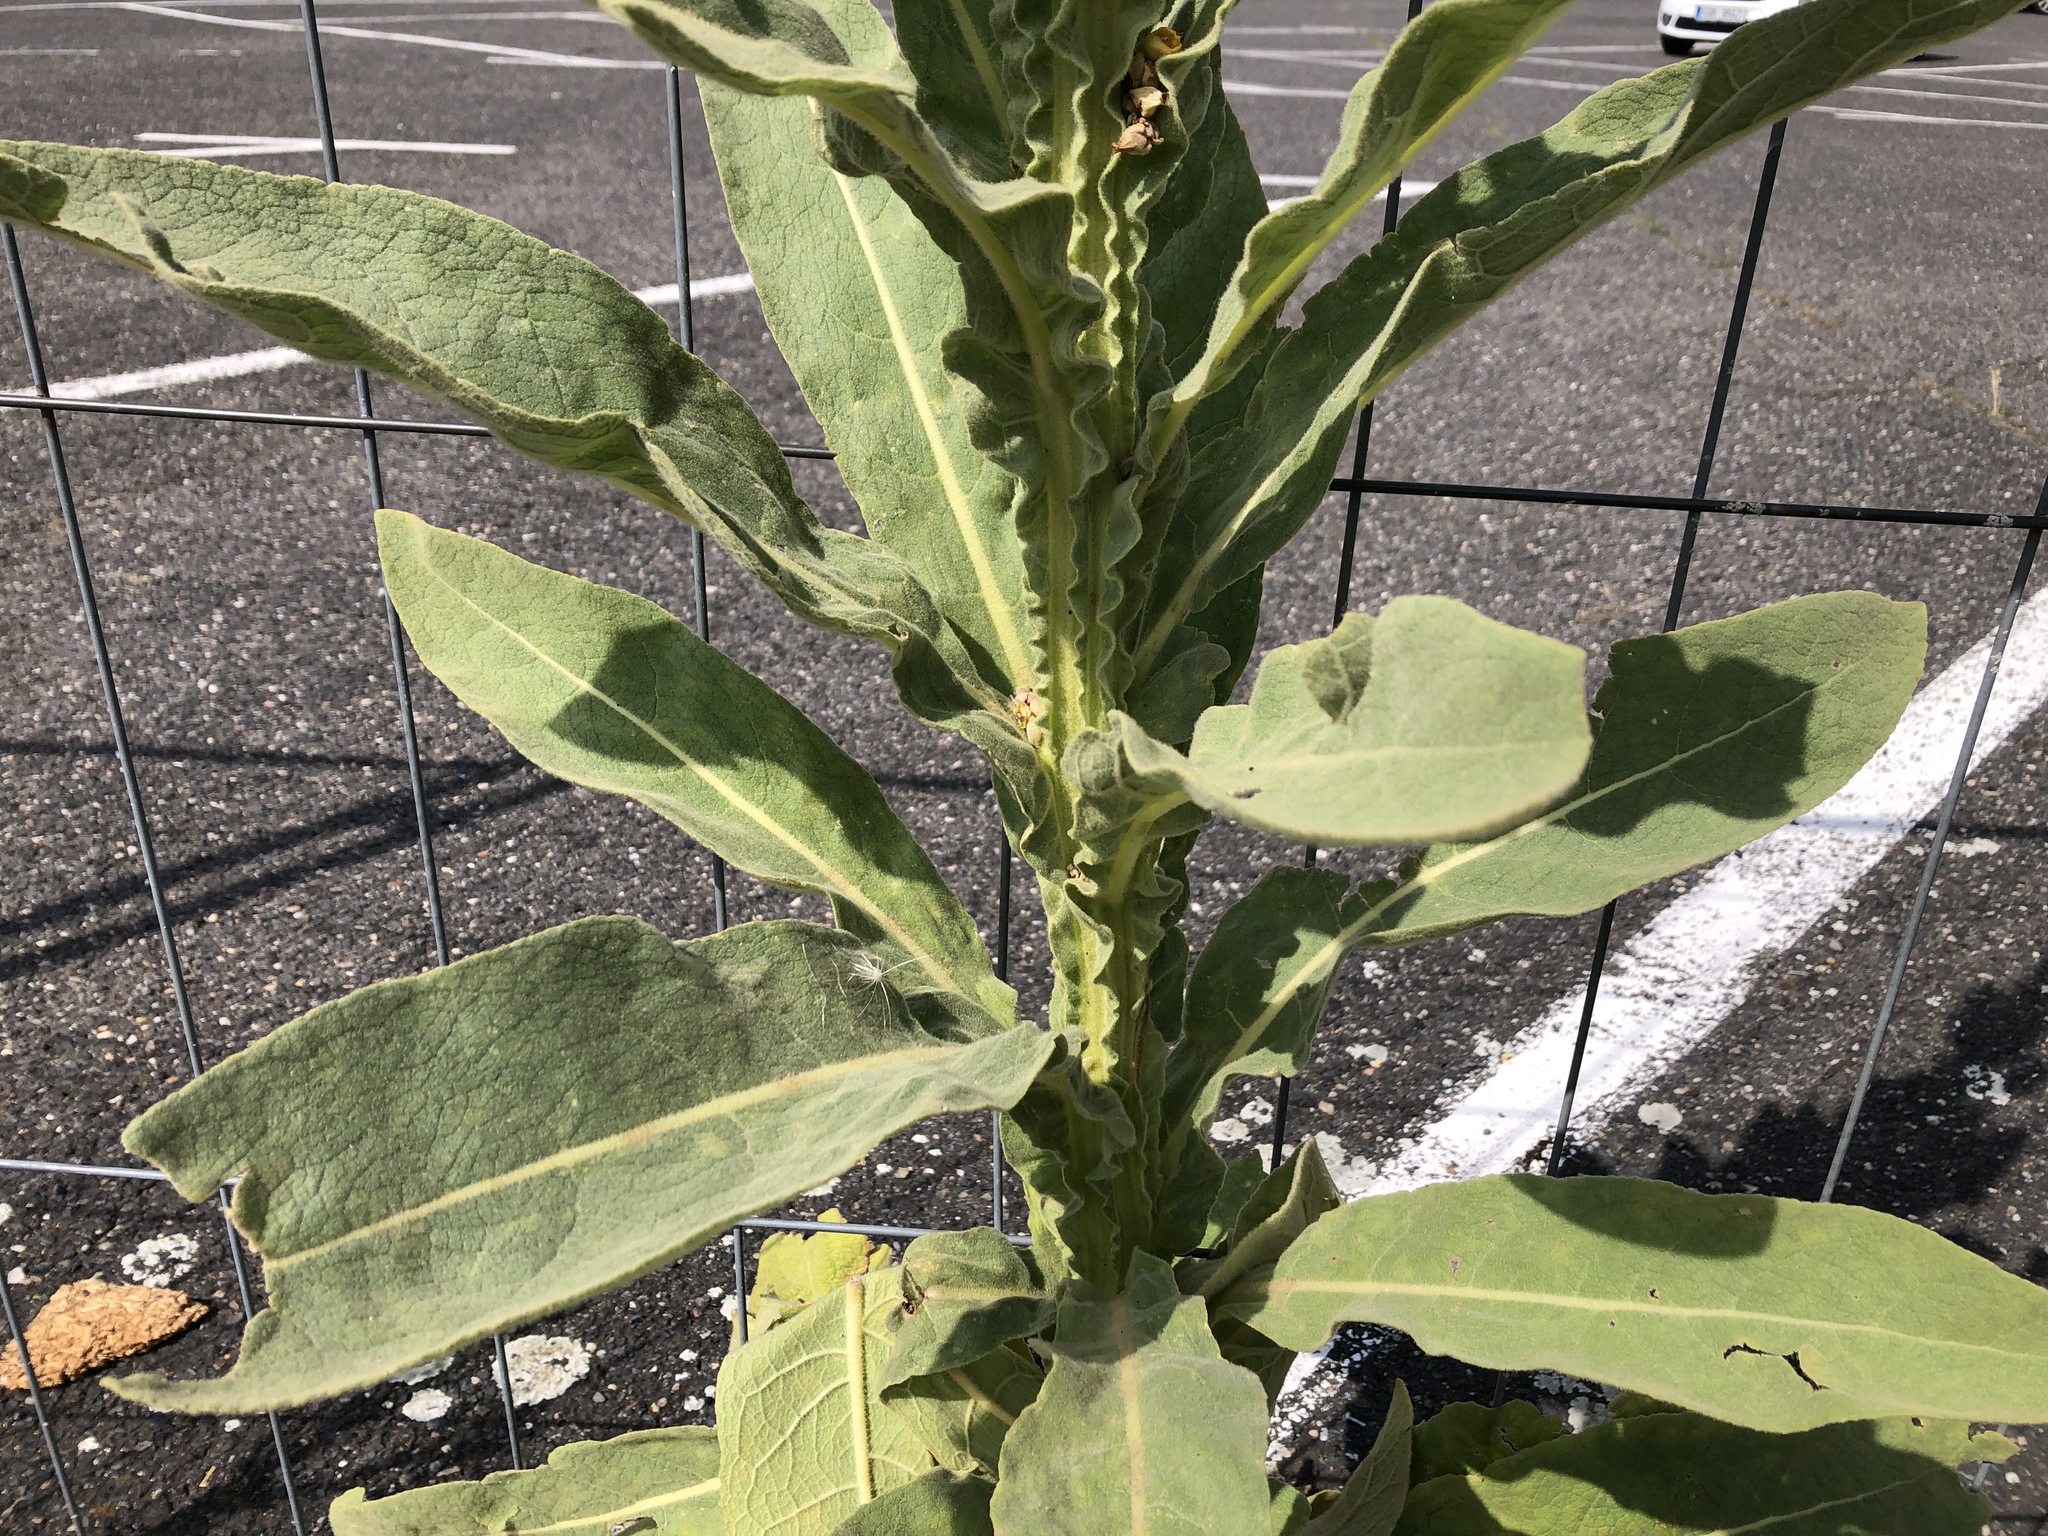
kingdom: Plantae
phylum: Tracheophyta
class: Magnoliopsida
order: Lamiales
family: Scrophulariaceae
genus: Verbascum
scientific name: Verbascum thapsus
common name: Common mullein
